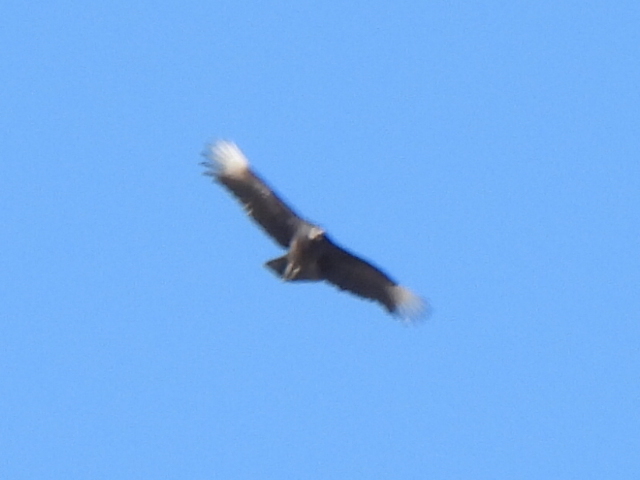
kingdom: Animalia
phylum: Chordata
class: Aves
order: Accipitriformes
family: Cathartidae
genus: Coragyps
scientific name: Coragyps atratus
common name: Black vulture
